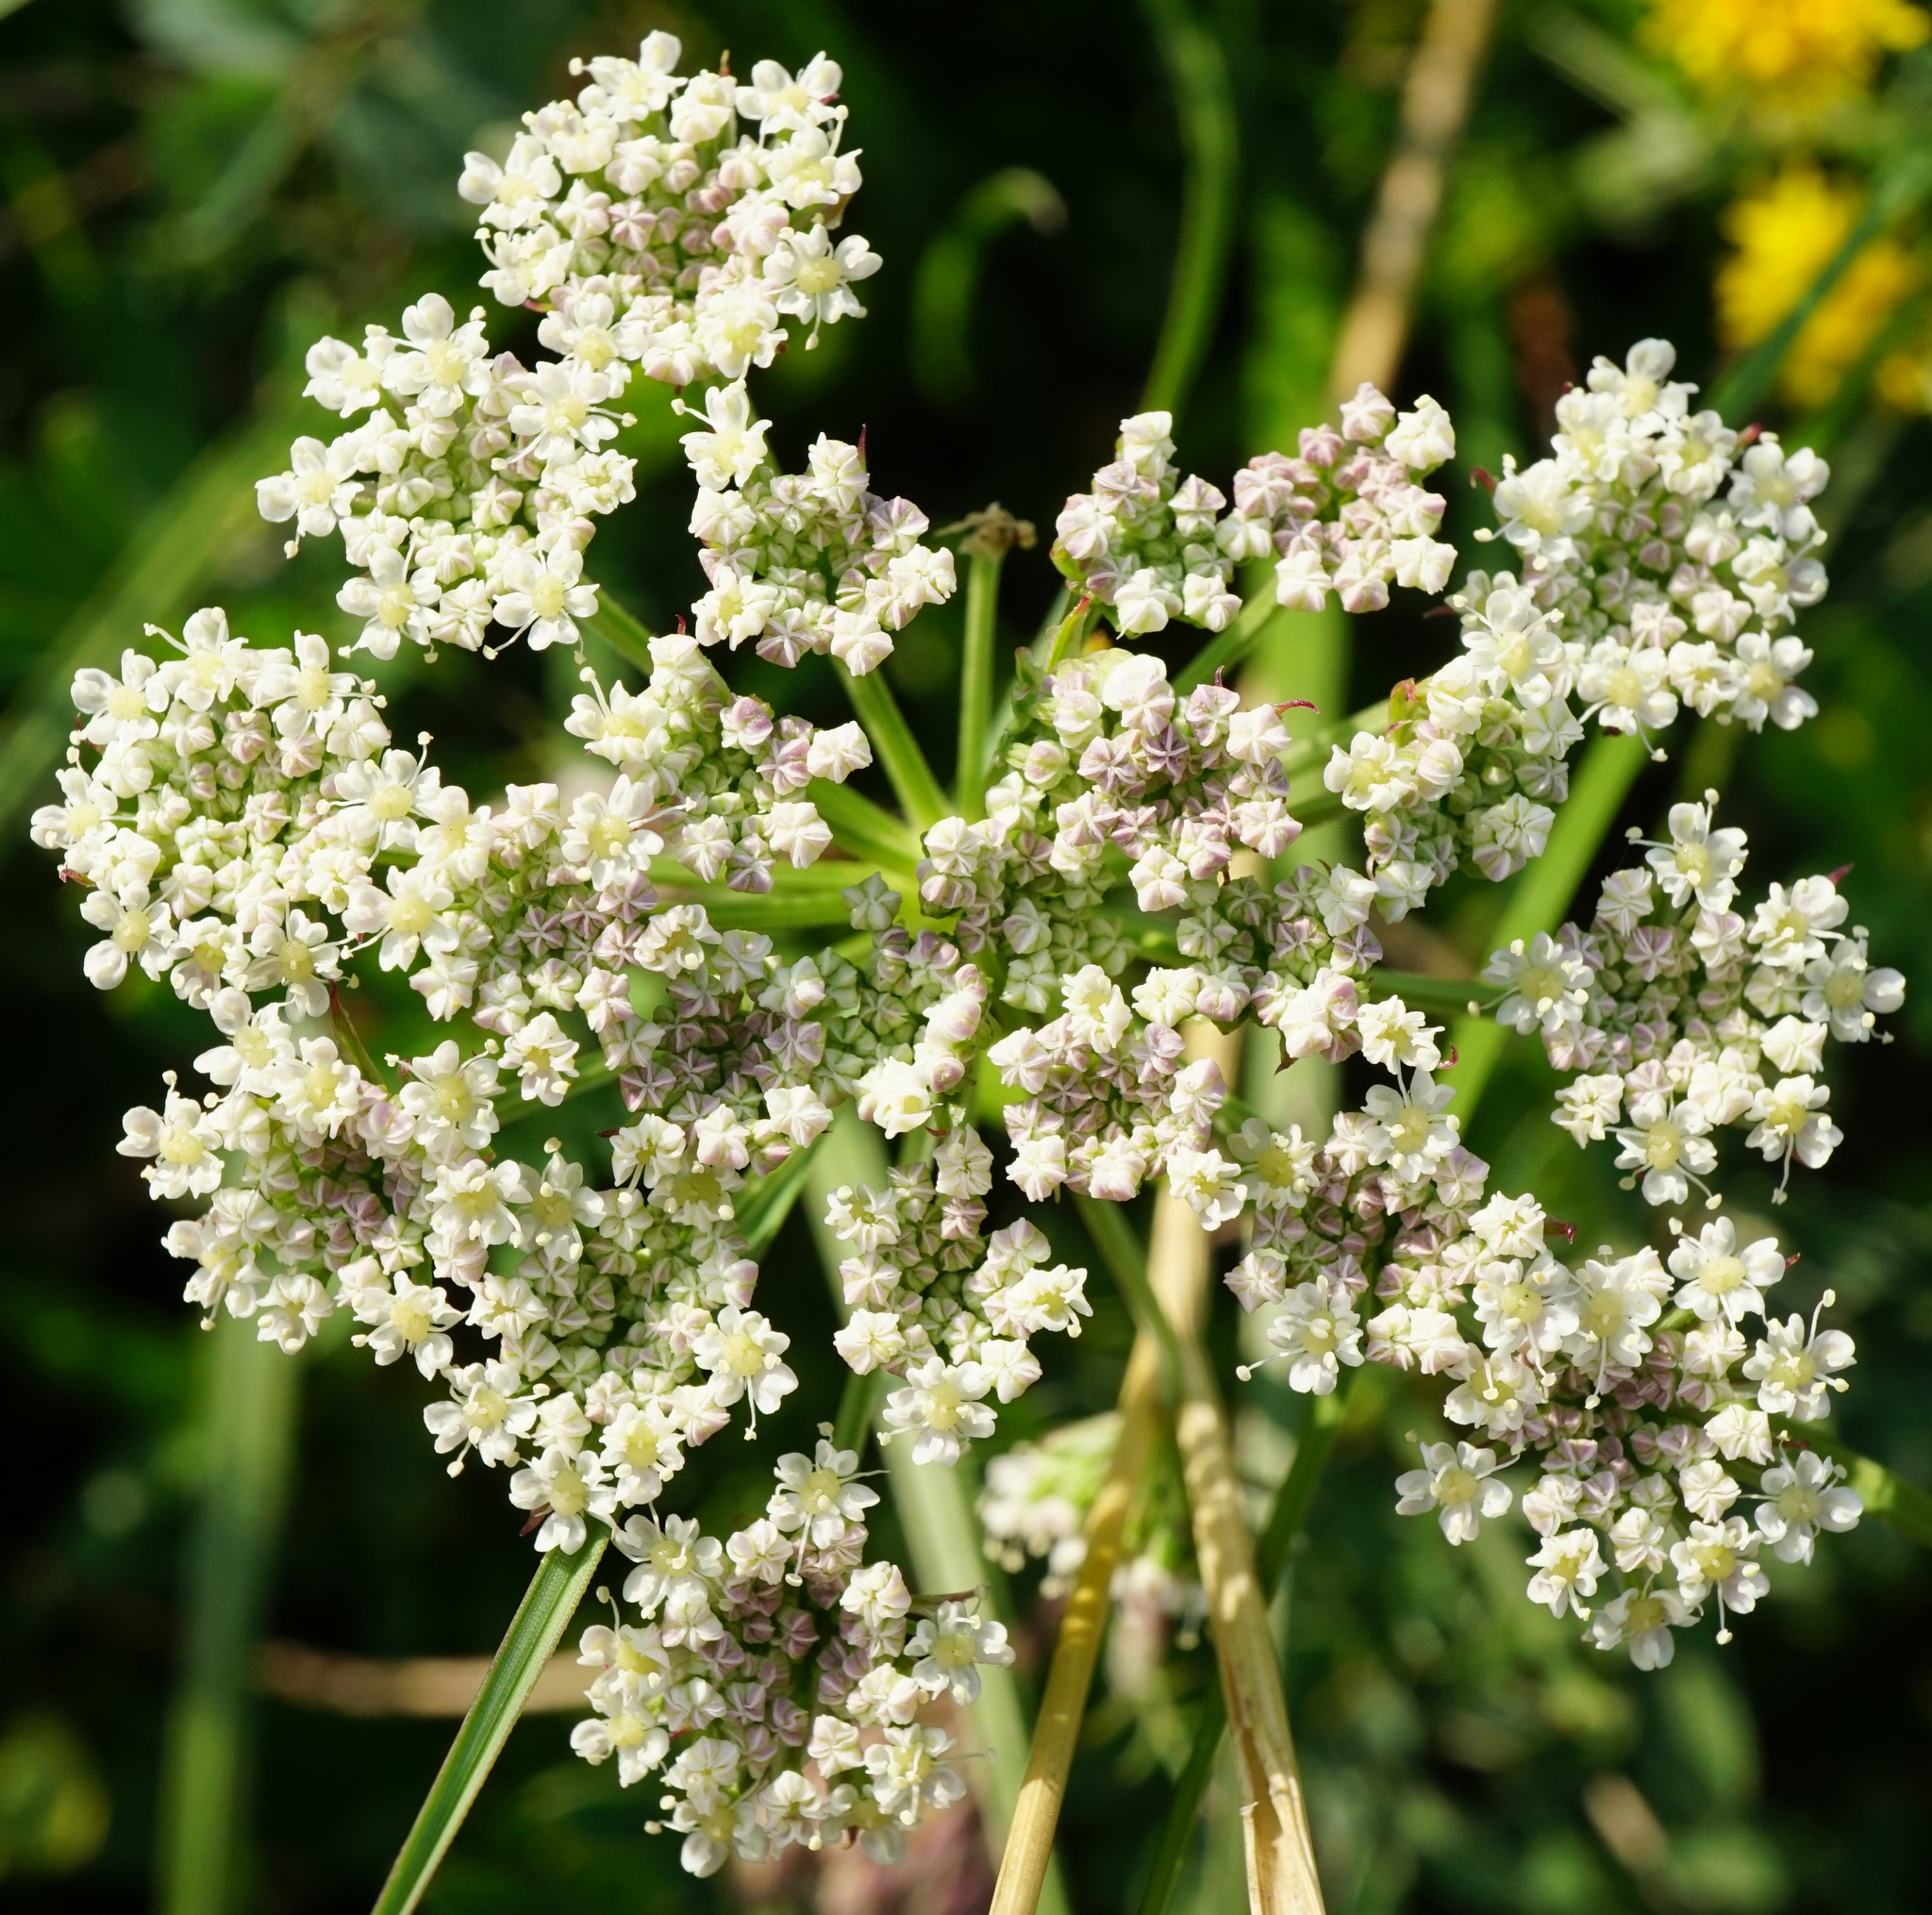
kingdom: Plantae
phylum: Tracheophyta
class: Magnoliopsida
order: Apiales
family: Apiaceae
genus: Seseli
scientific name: Seseli annuum
